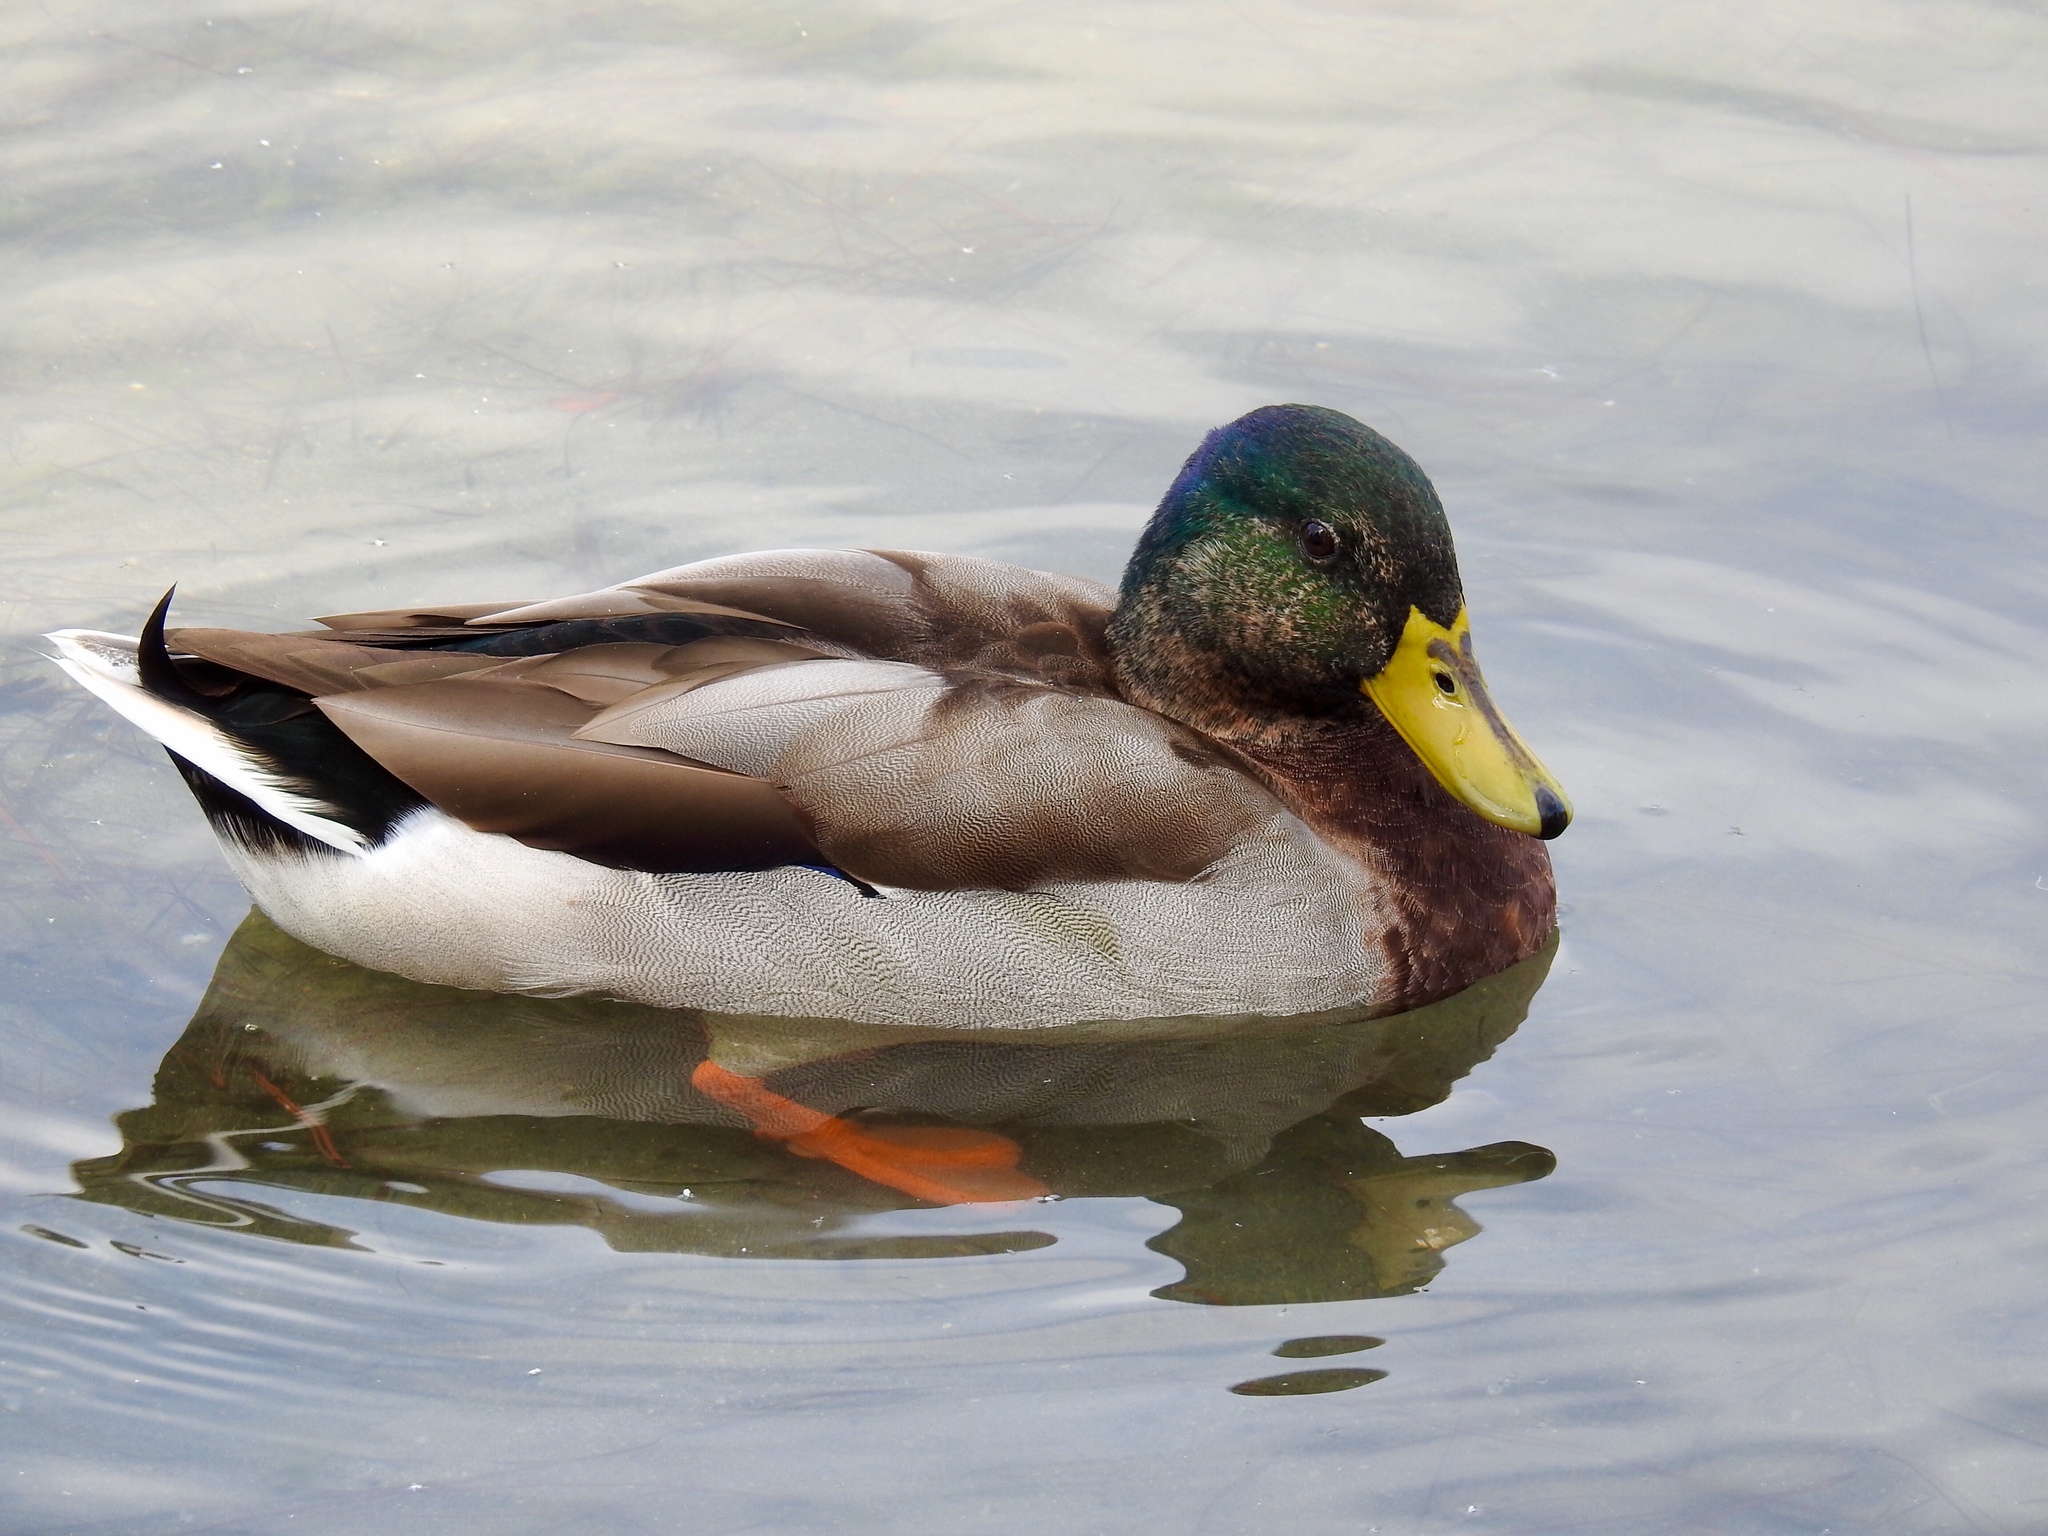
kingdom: Animalia
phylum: Chordata
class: Aves
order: Anseriformes
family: Anatidae
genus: Anas
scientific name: Anas platyrhynchos
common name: Mallard
